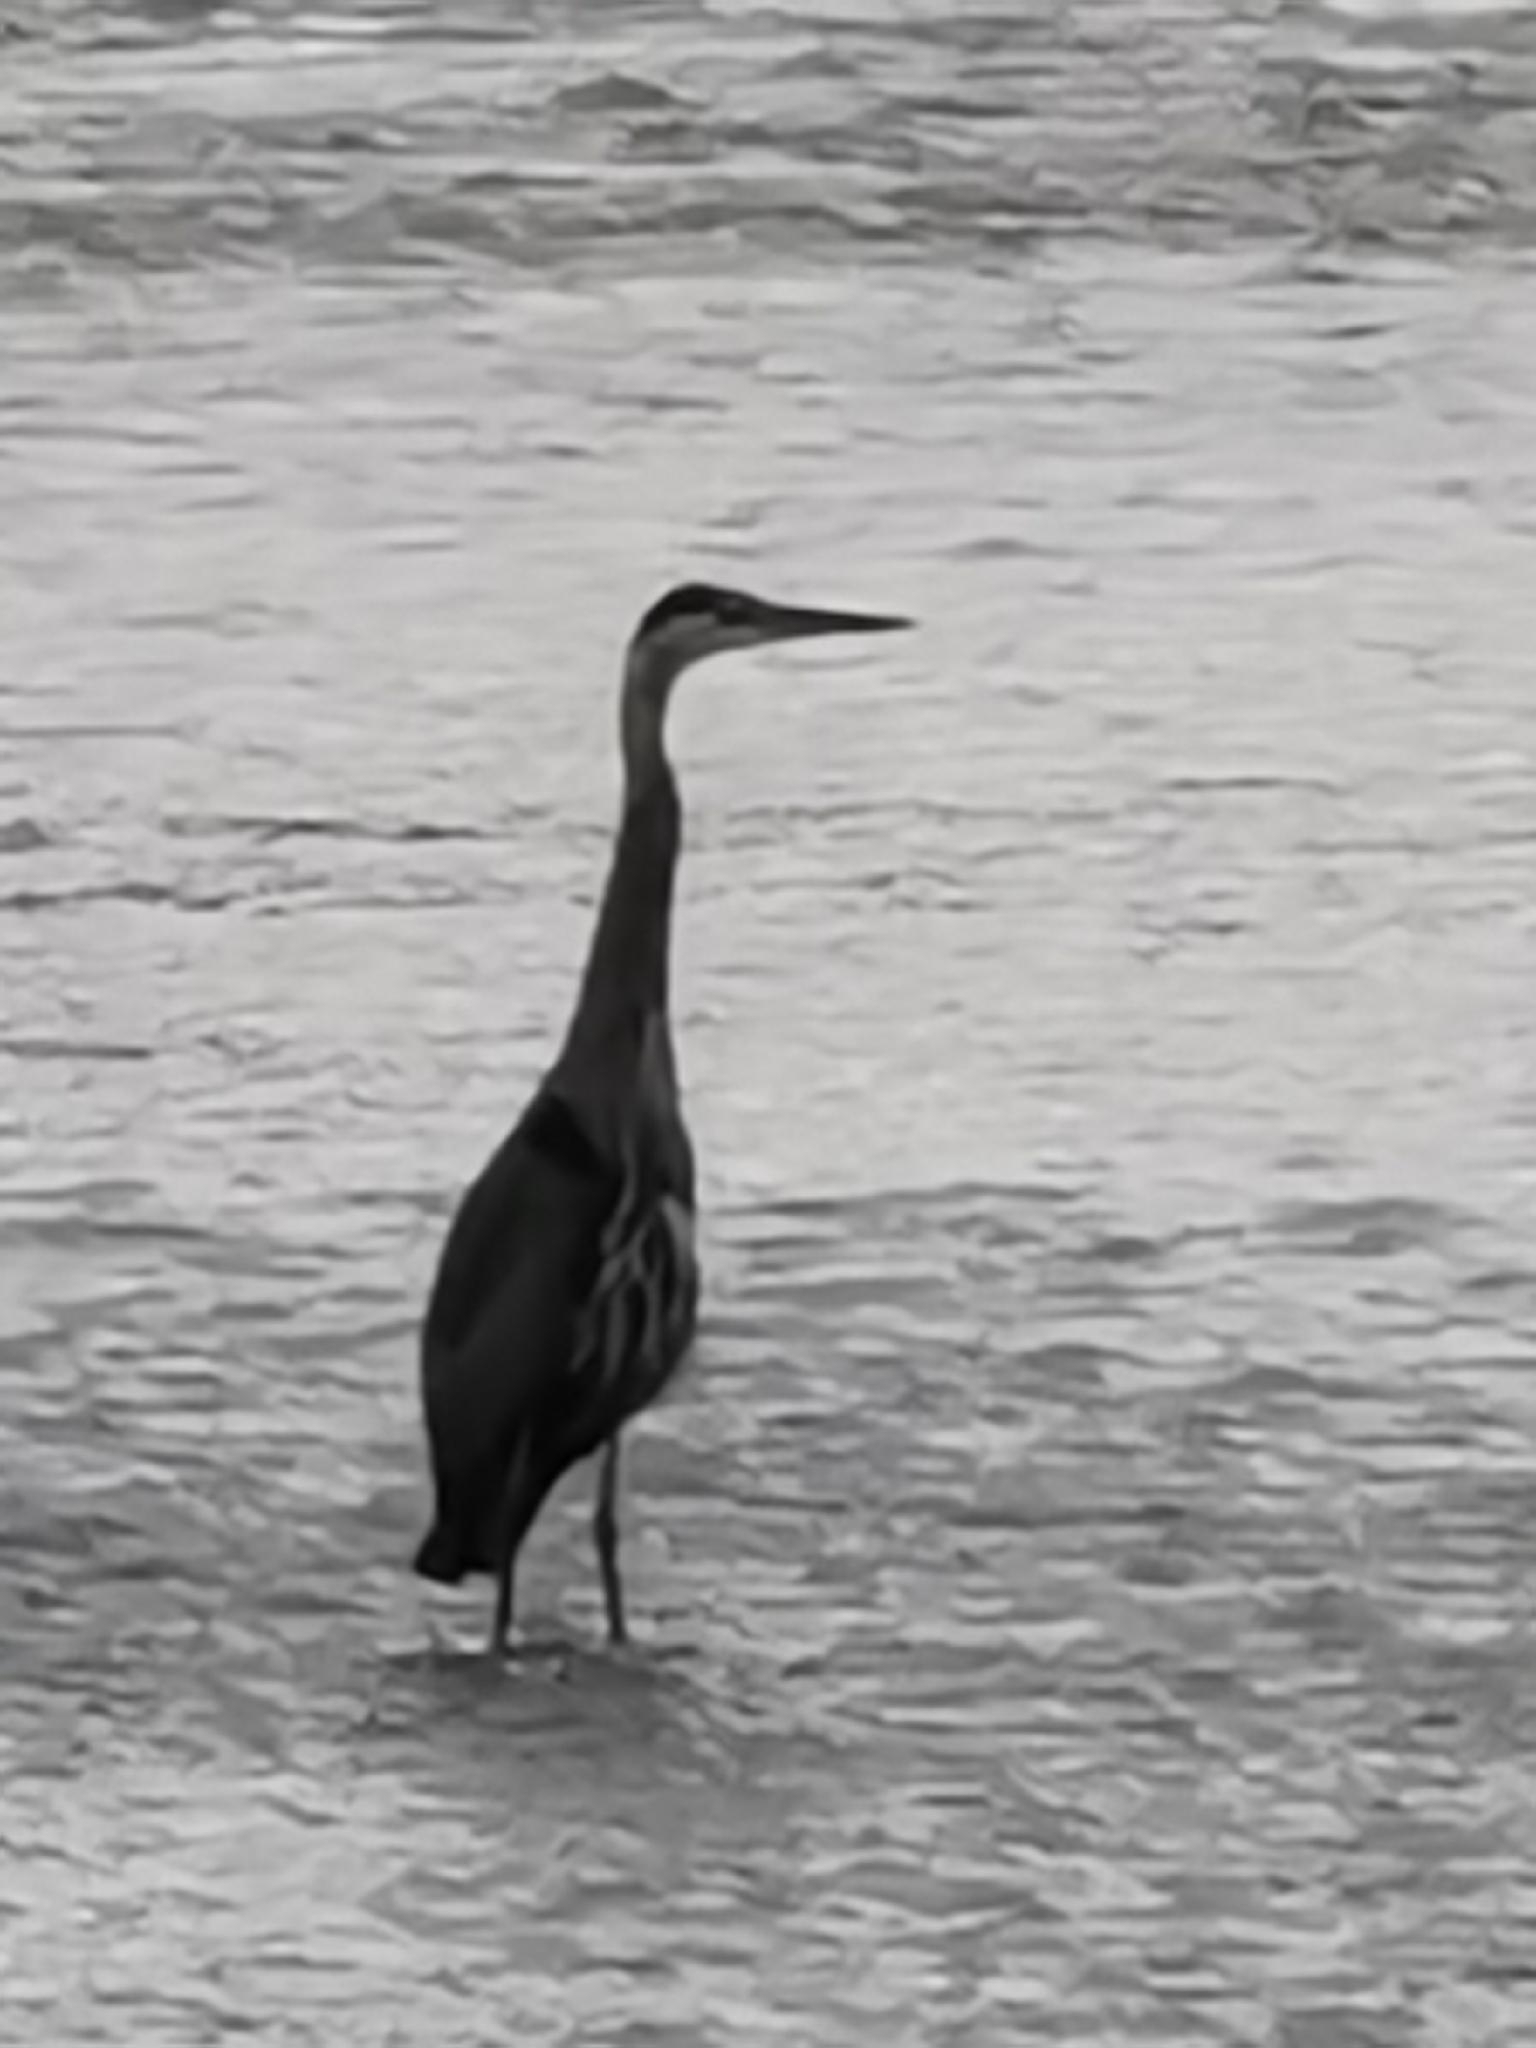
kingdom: Animalia
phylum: Chordata
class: Aves
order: Pelecaniformes
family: Ardeidae
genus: Ardea
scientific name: Ardea herodias
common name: Great blue heron
